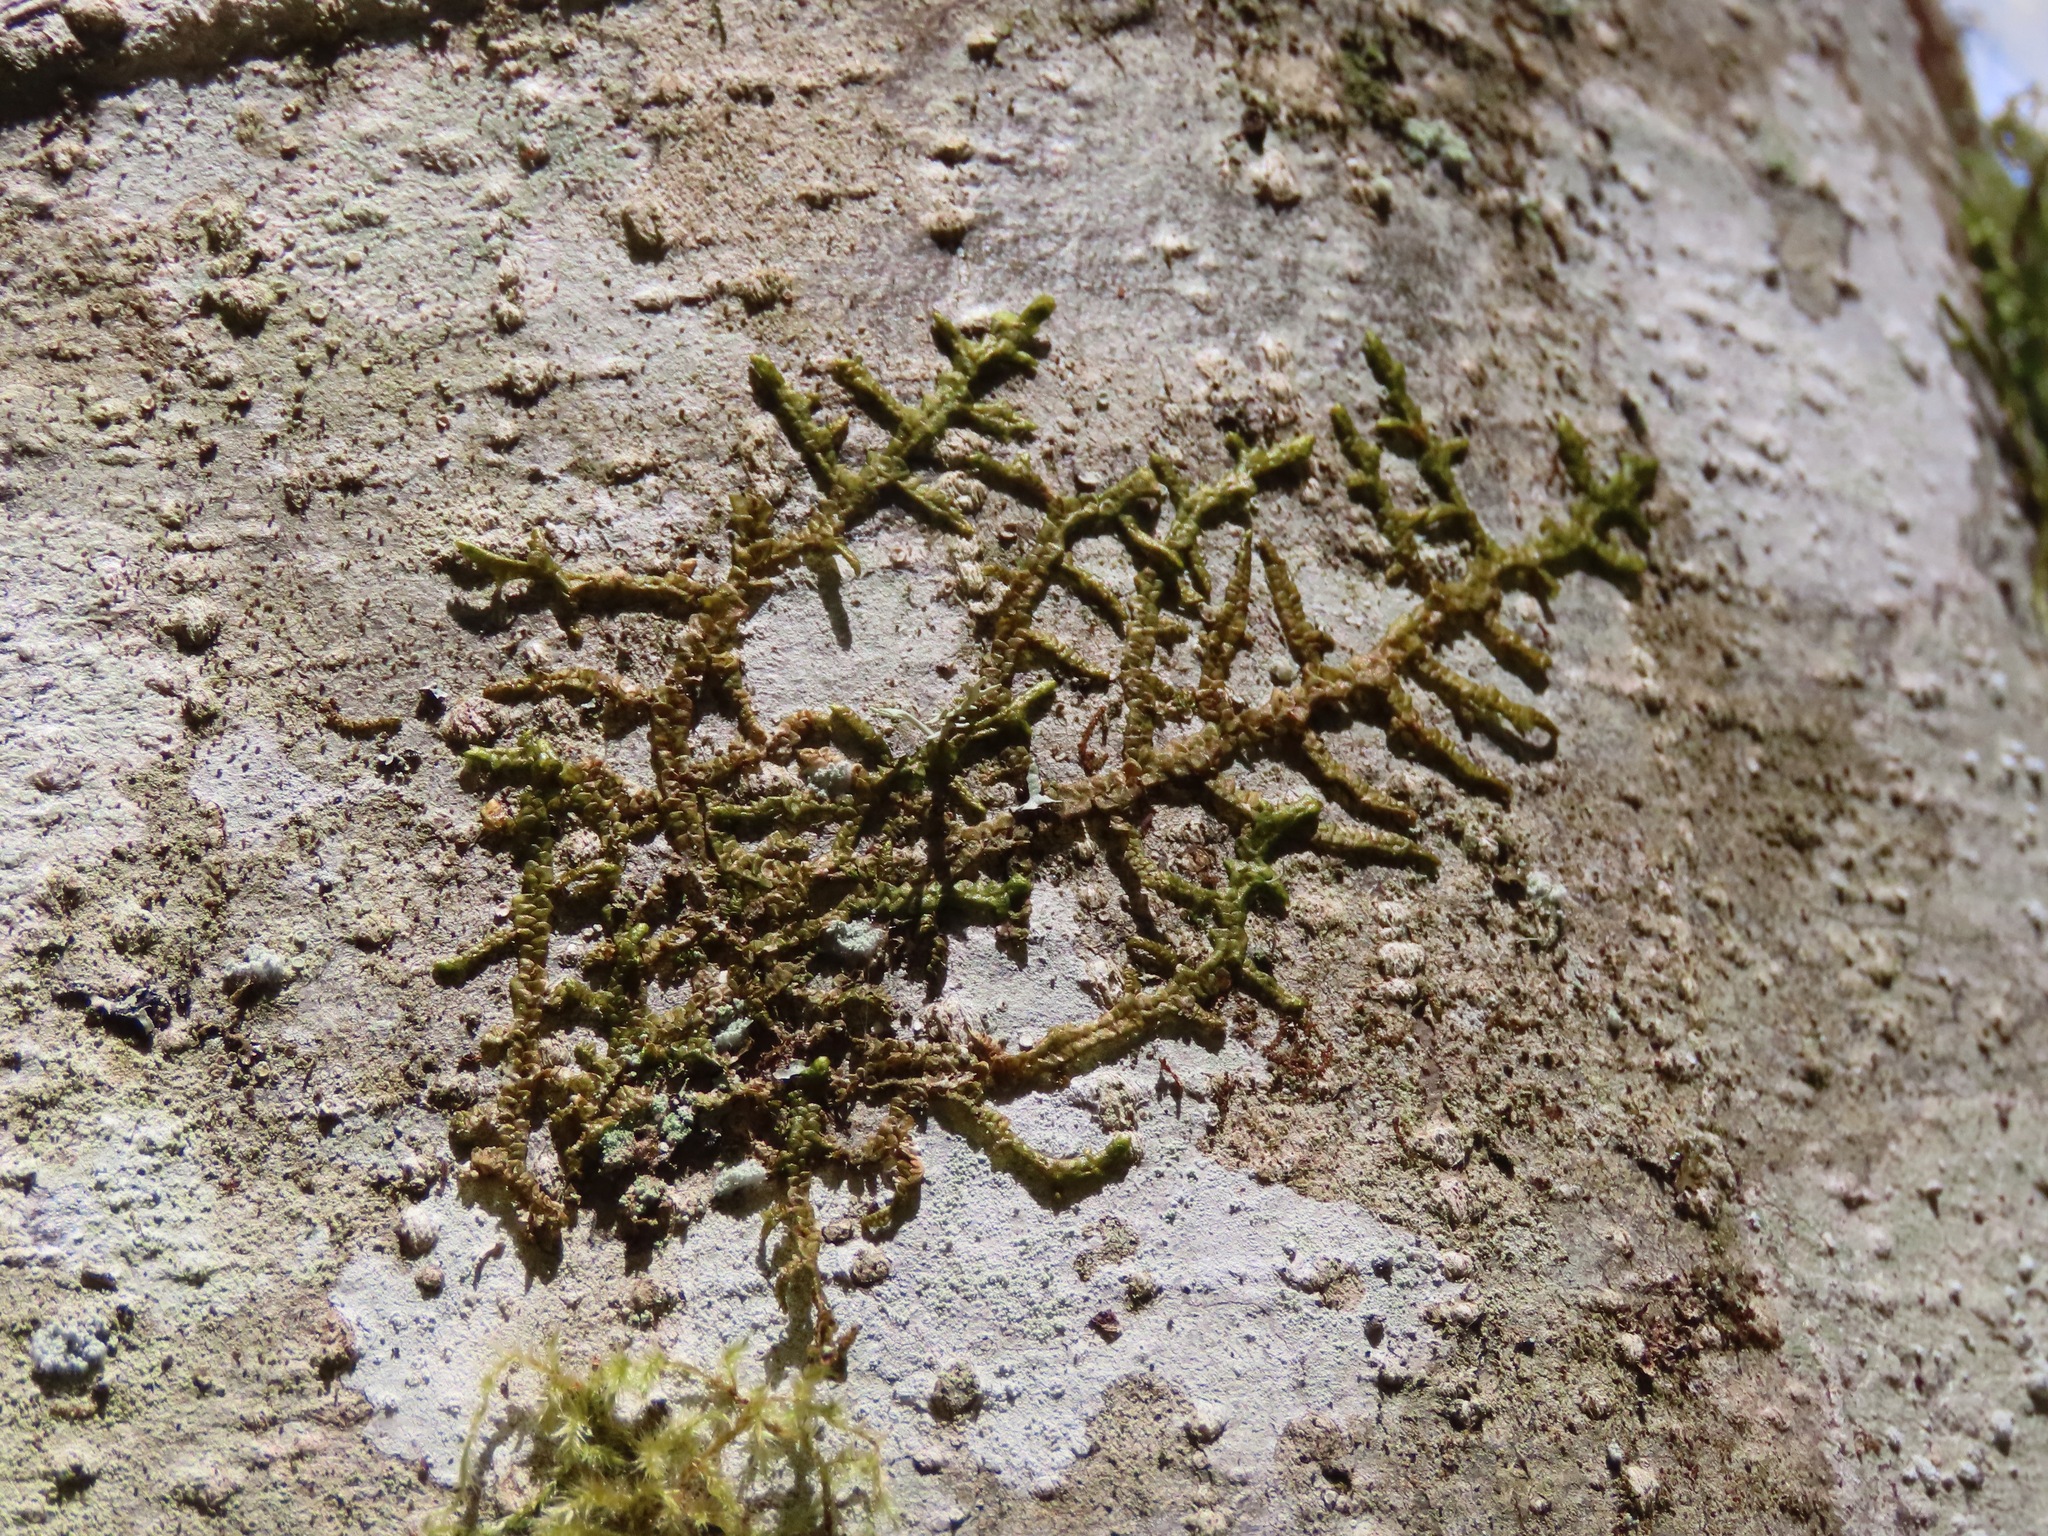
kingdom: Plantae
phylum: Marchantiophyta
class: Jungermanniopsida
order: Porellales
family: Porellaceae
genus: Porella
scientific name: Porella navicularis
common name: Tree ruffle liverwort
